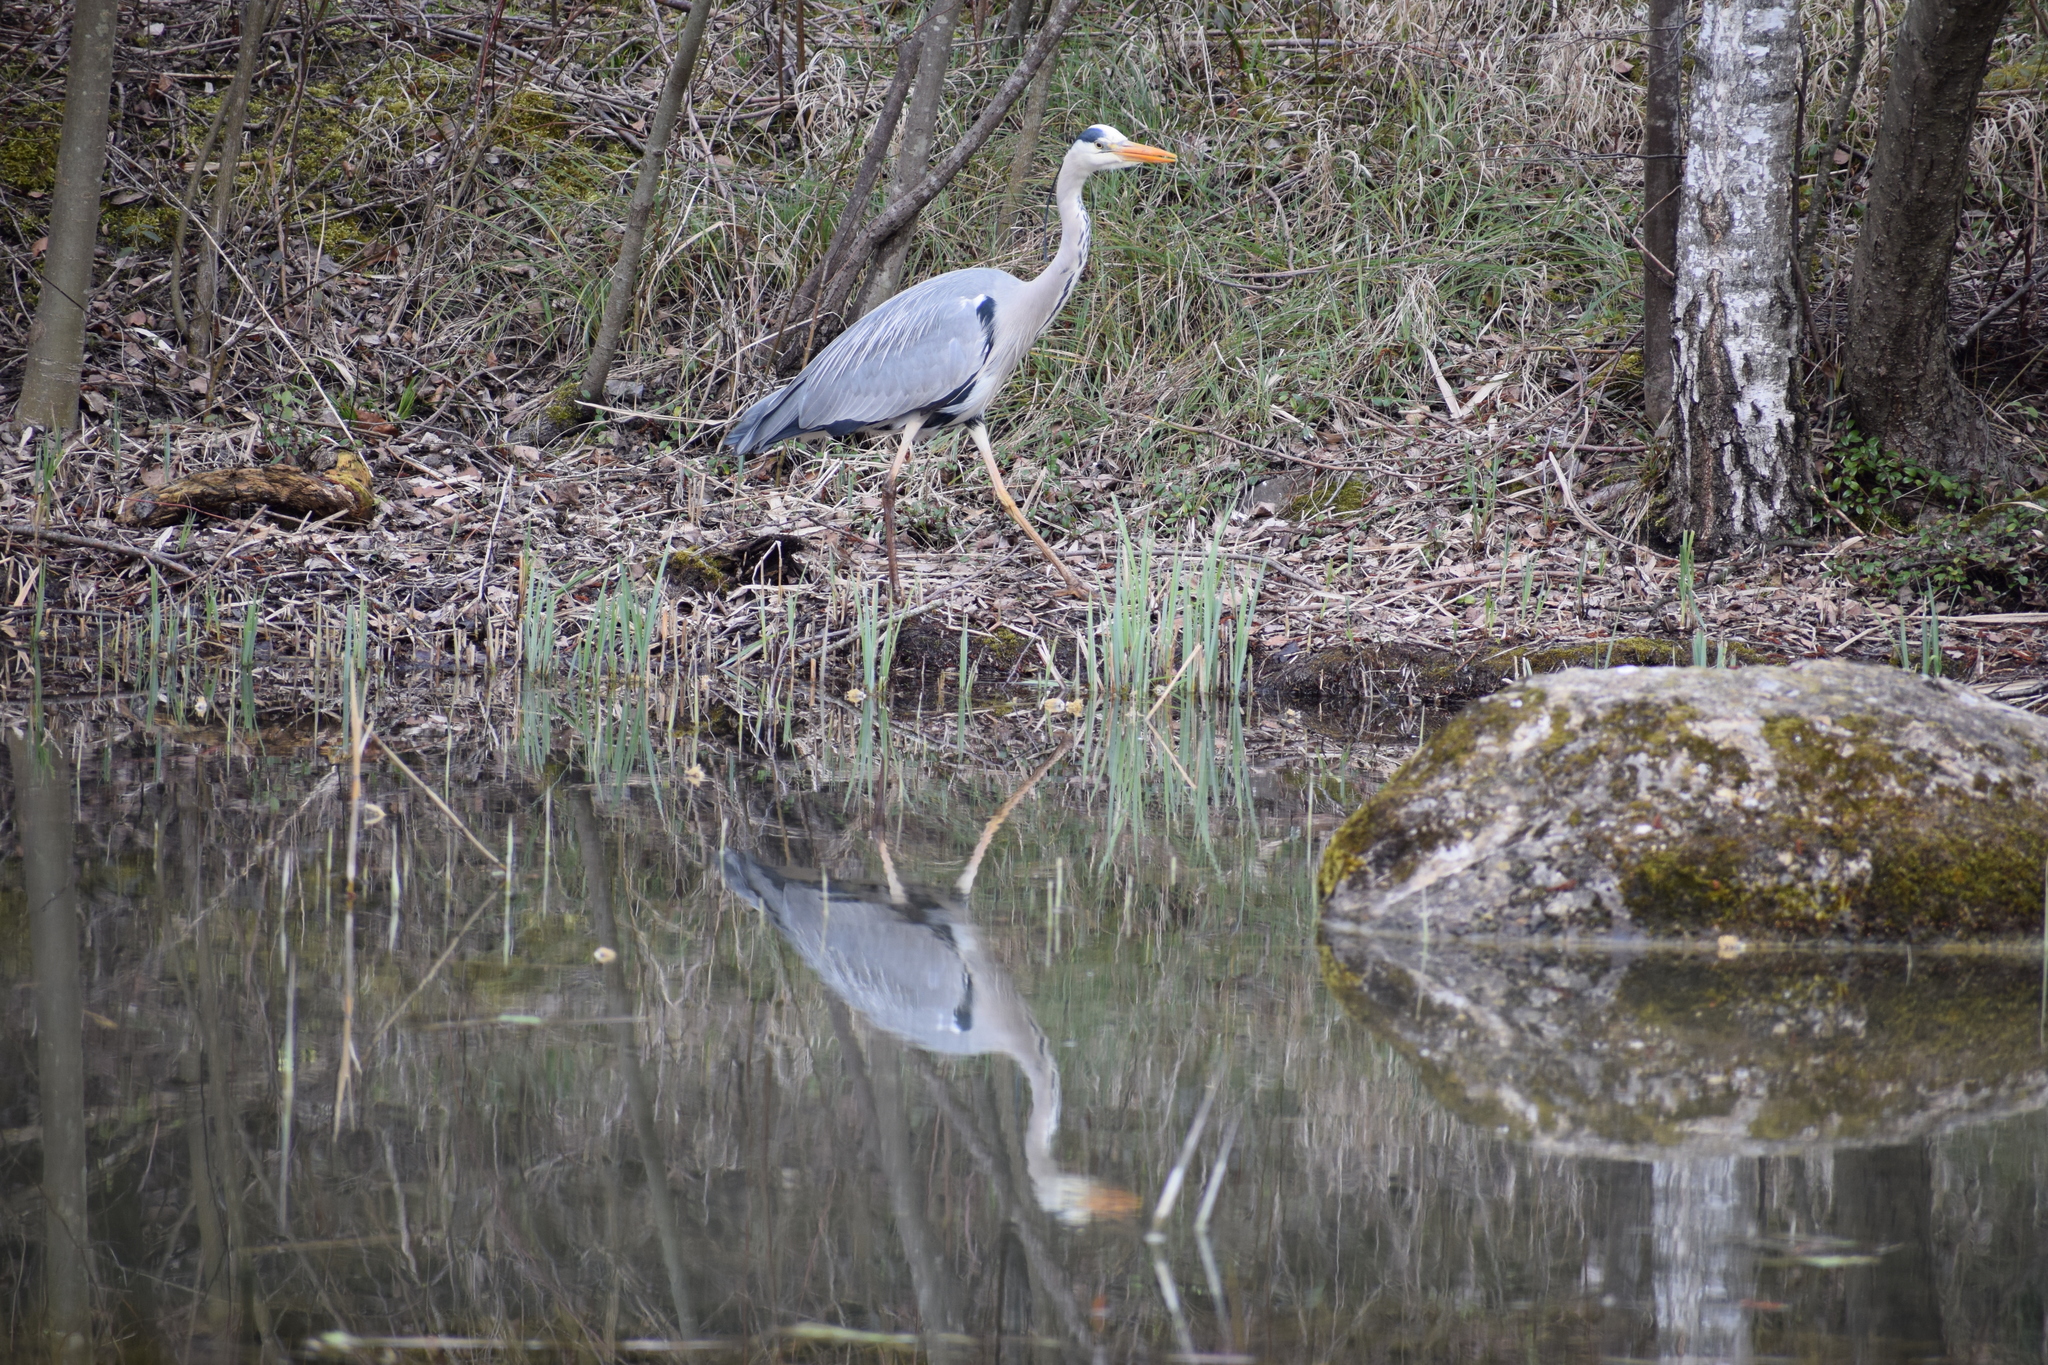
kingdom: Animalia
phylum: Chordata
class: Aves
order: Pelecaniformes
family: Ardeidae
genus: Ardea
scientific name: Ardea cinerea
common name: Grey heron
